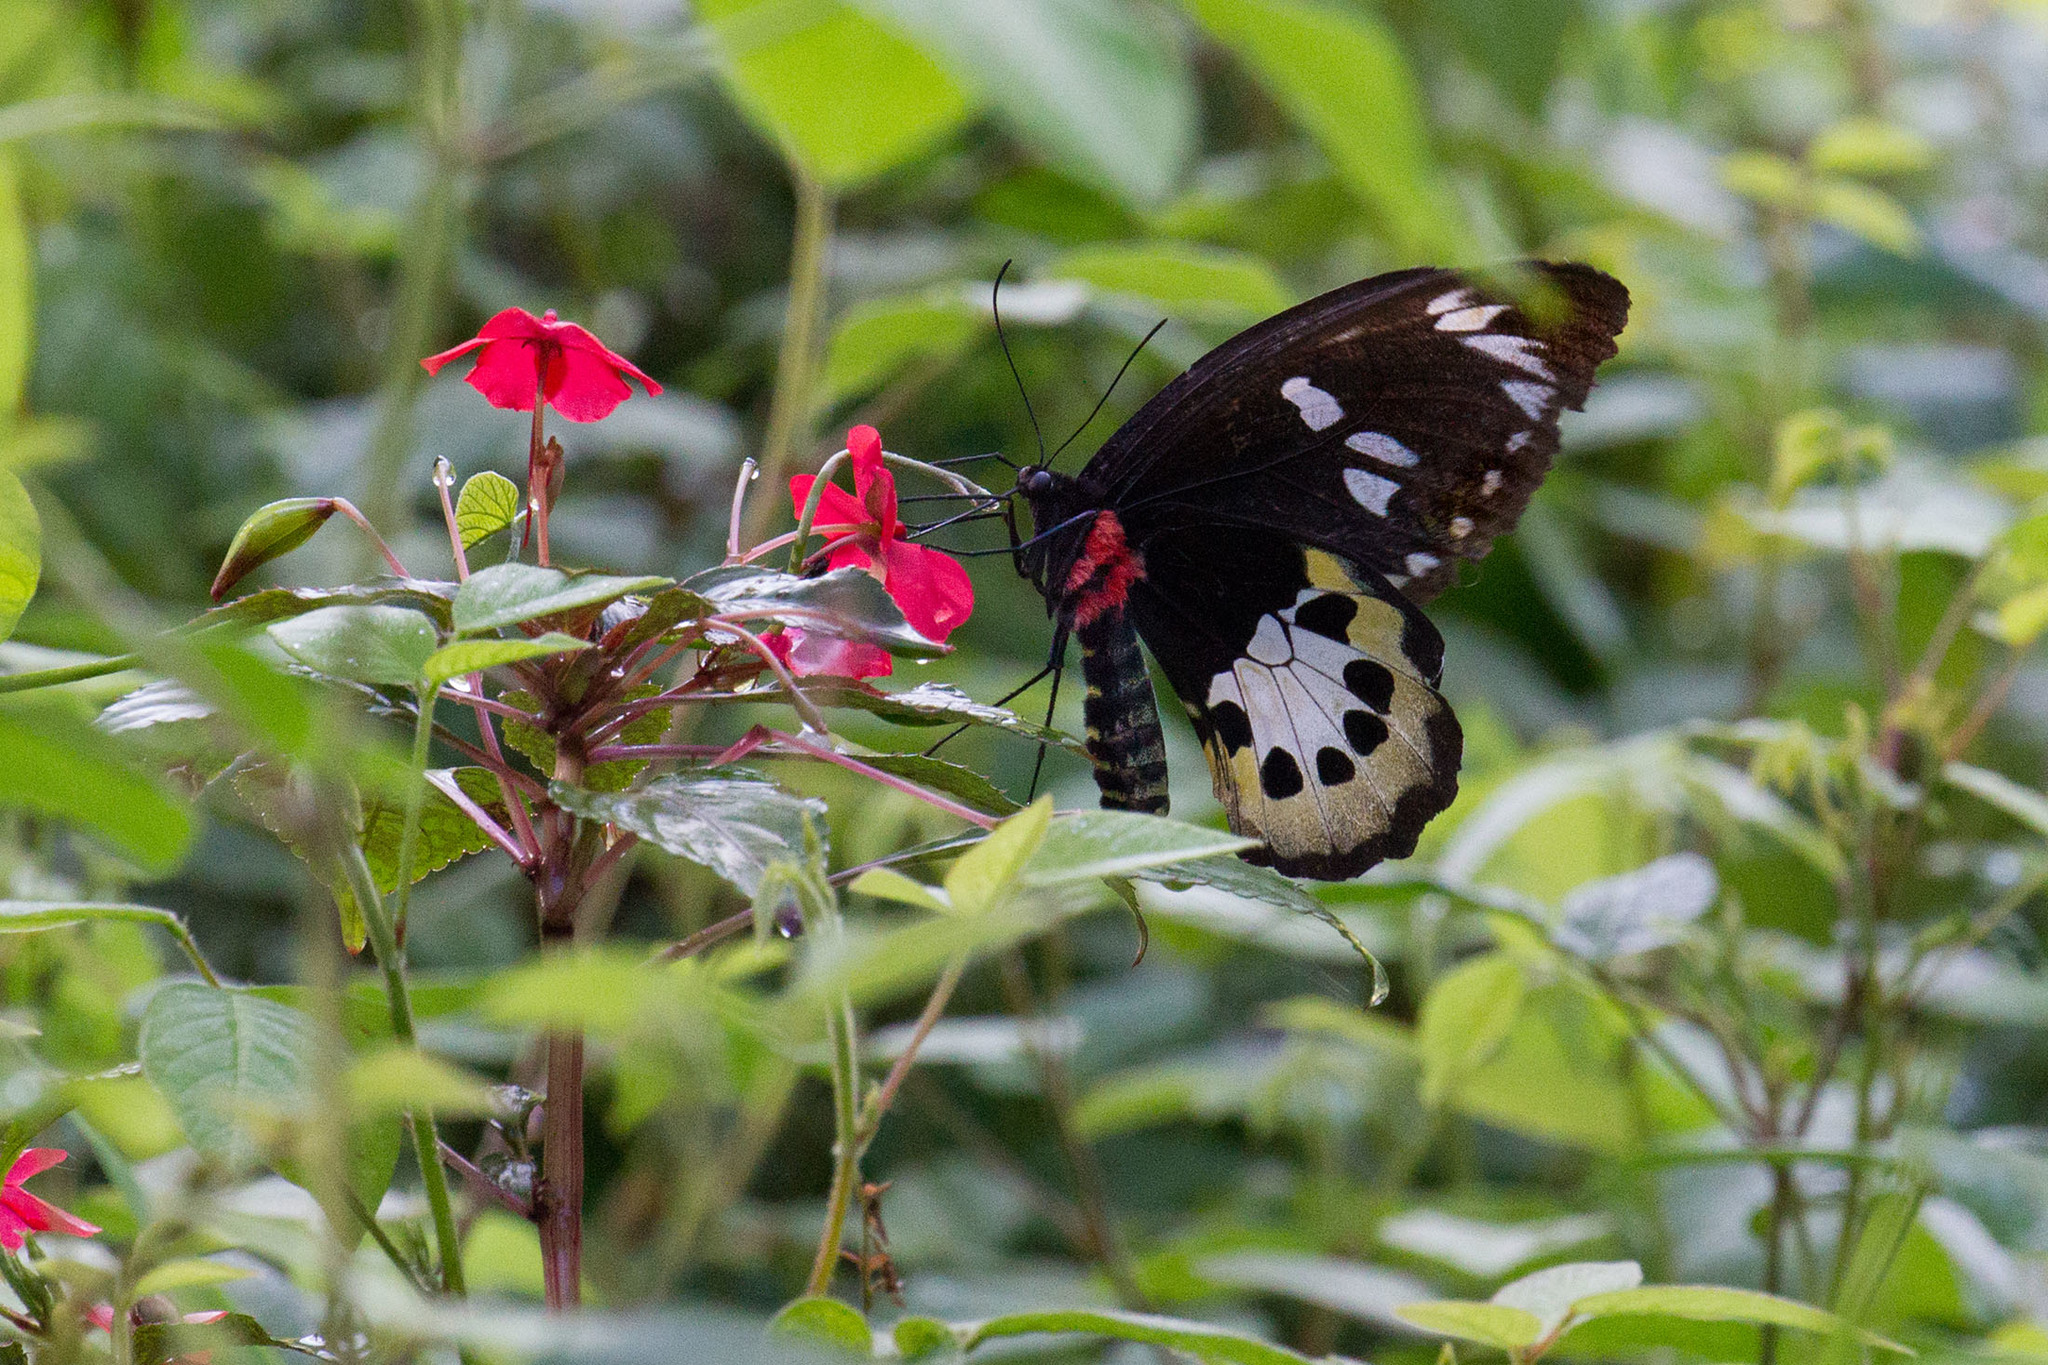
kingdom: Animalia
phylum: Arthropoda
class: Insecta
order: Lepidoptera
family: Papilionidae
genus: Ornithoptera
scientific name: Ornithoptera tithonus
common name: Tithonus birdwing
